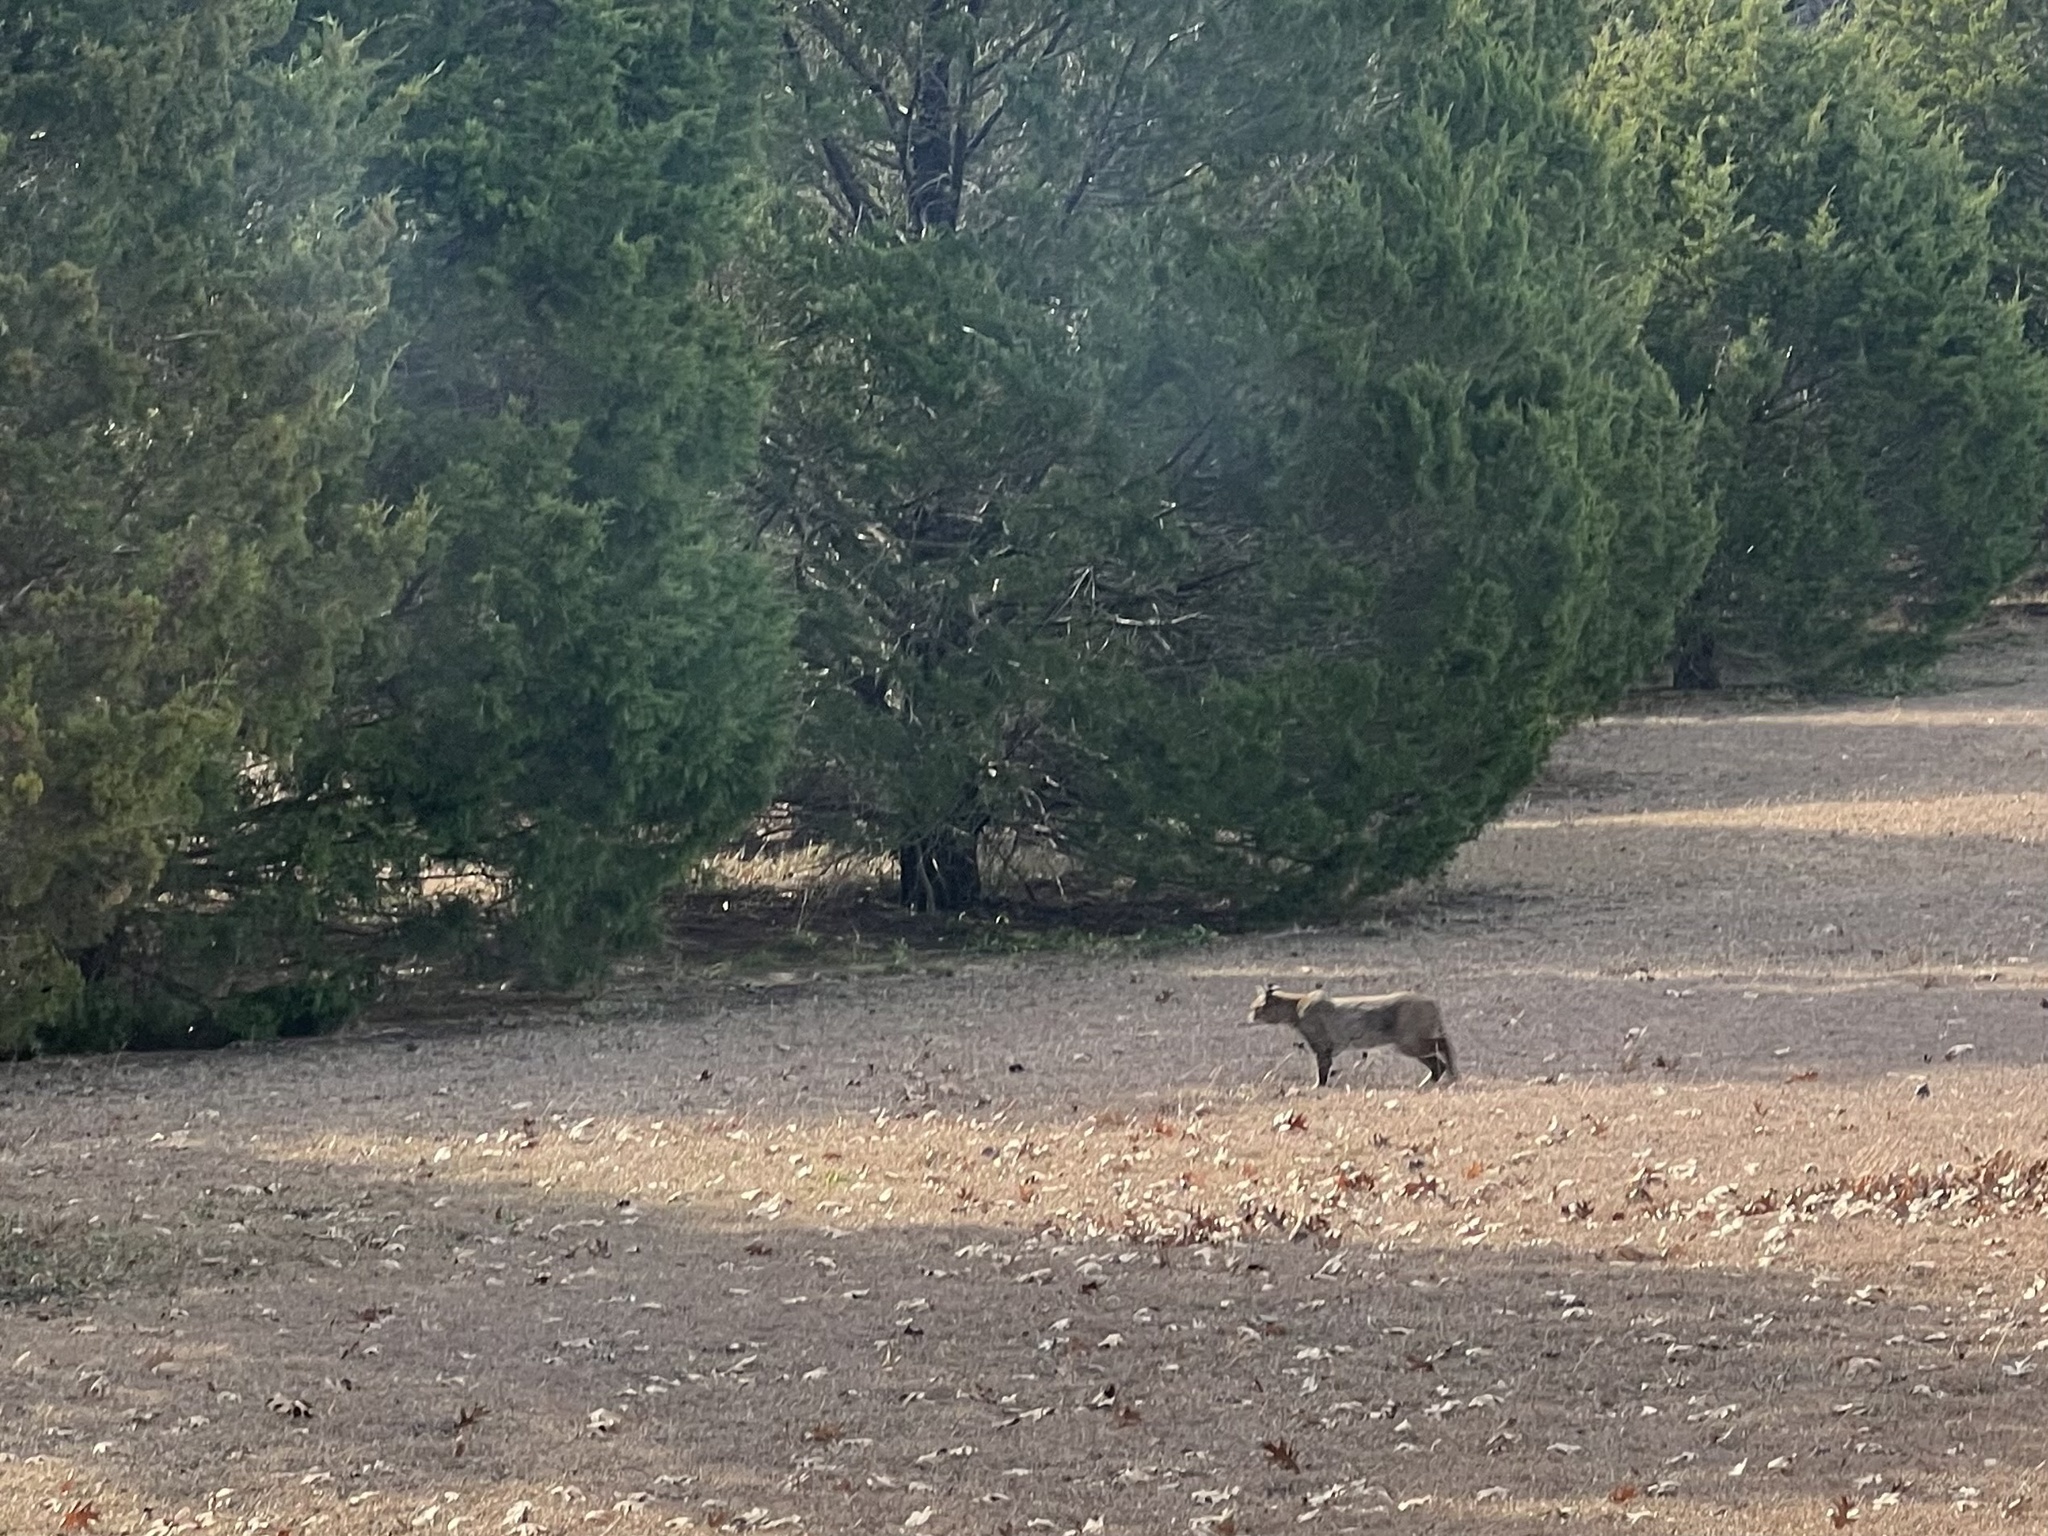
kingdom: Animalia
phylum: Chordata
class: Mammalia
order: Carnivora
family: Felidae
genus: Lynx
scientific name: Lynx rufus
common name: Bobcat
